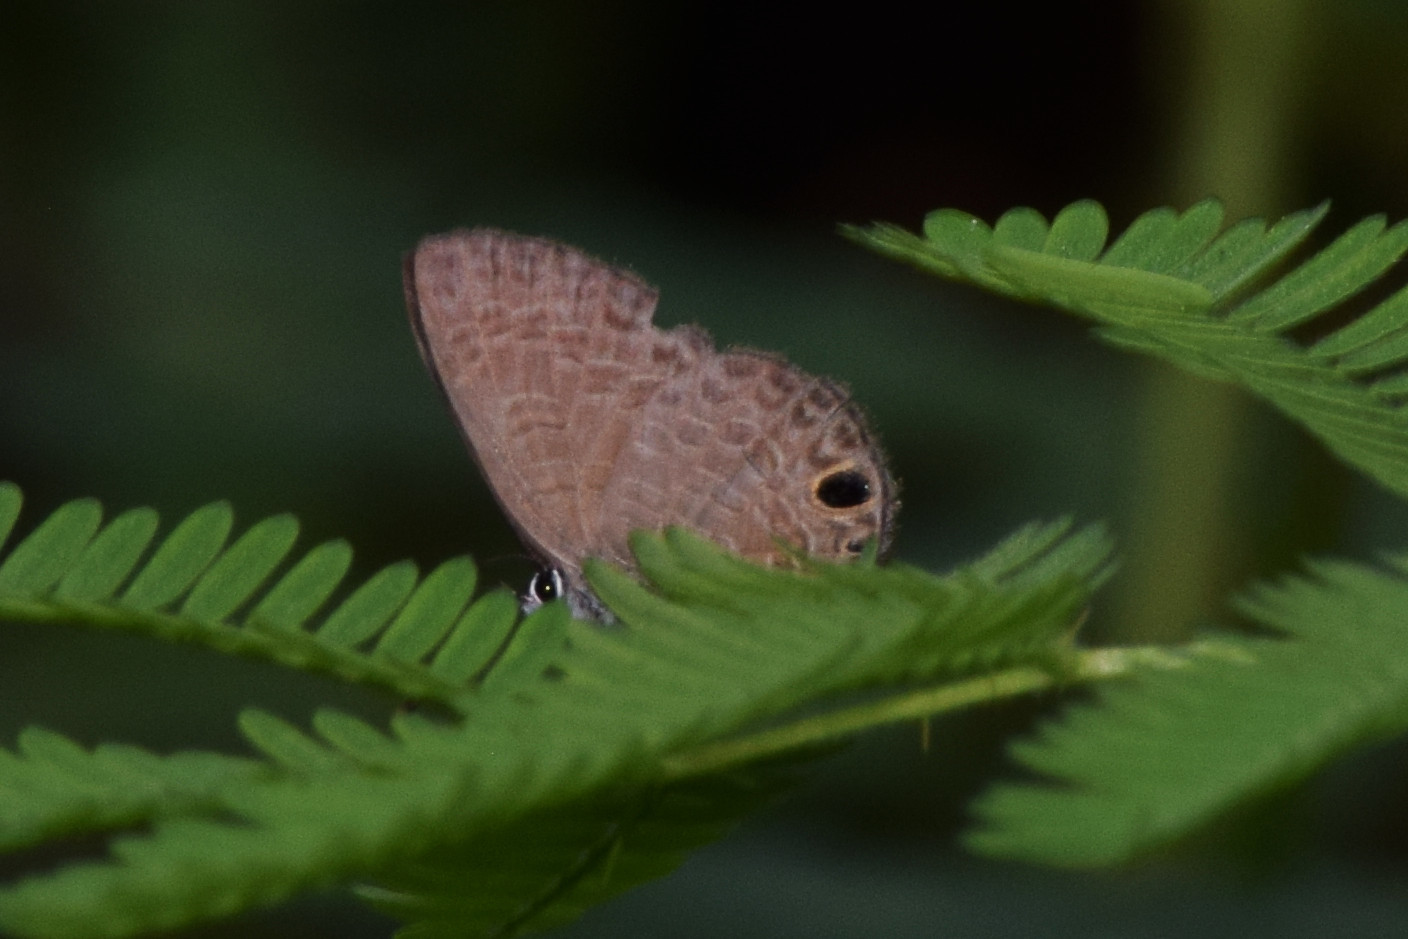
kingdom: Animalia
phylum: Arthropoda
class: Insecta
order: Lepidoptera
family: Lycaenidae
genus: Prosotas
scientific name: Prosotas dubiosa
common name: Tailless lineblue
